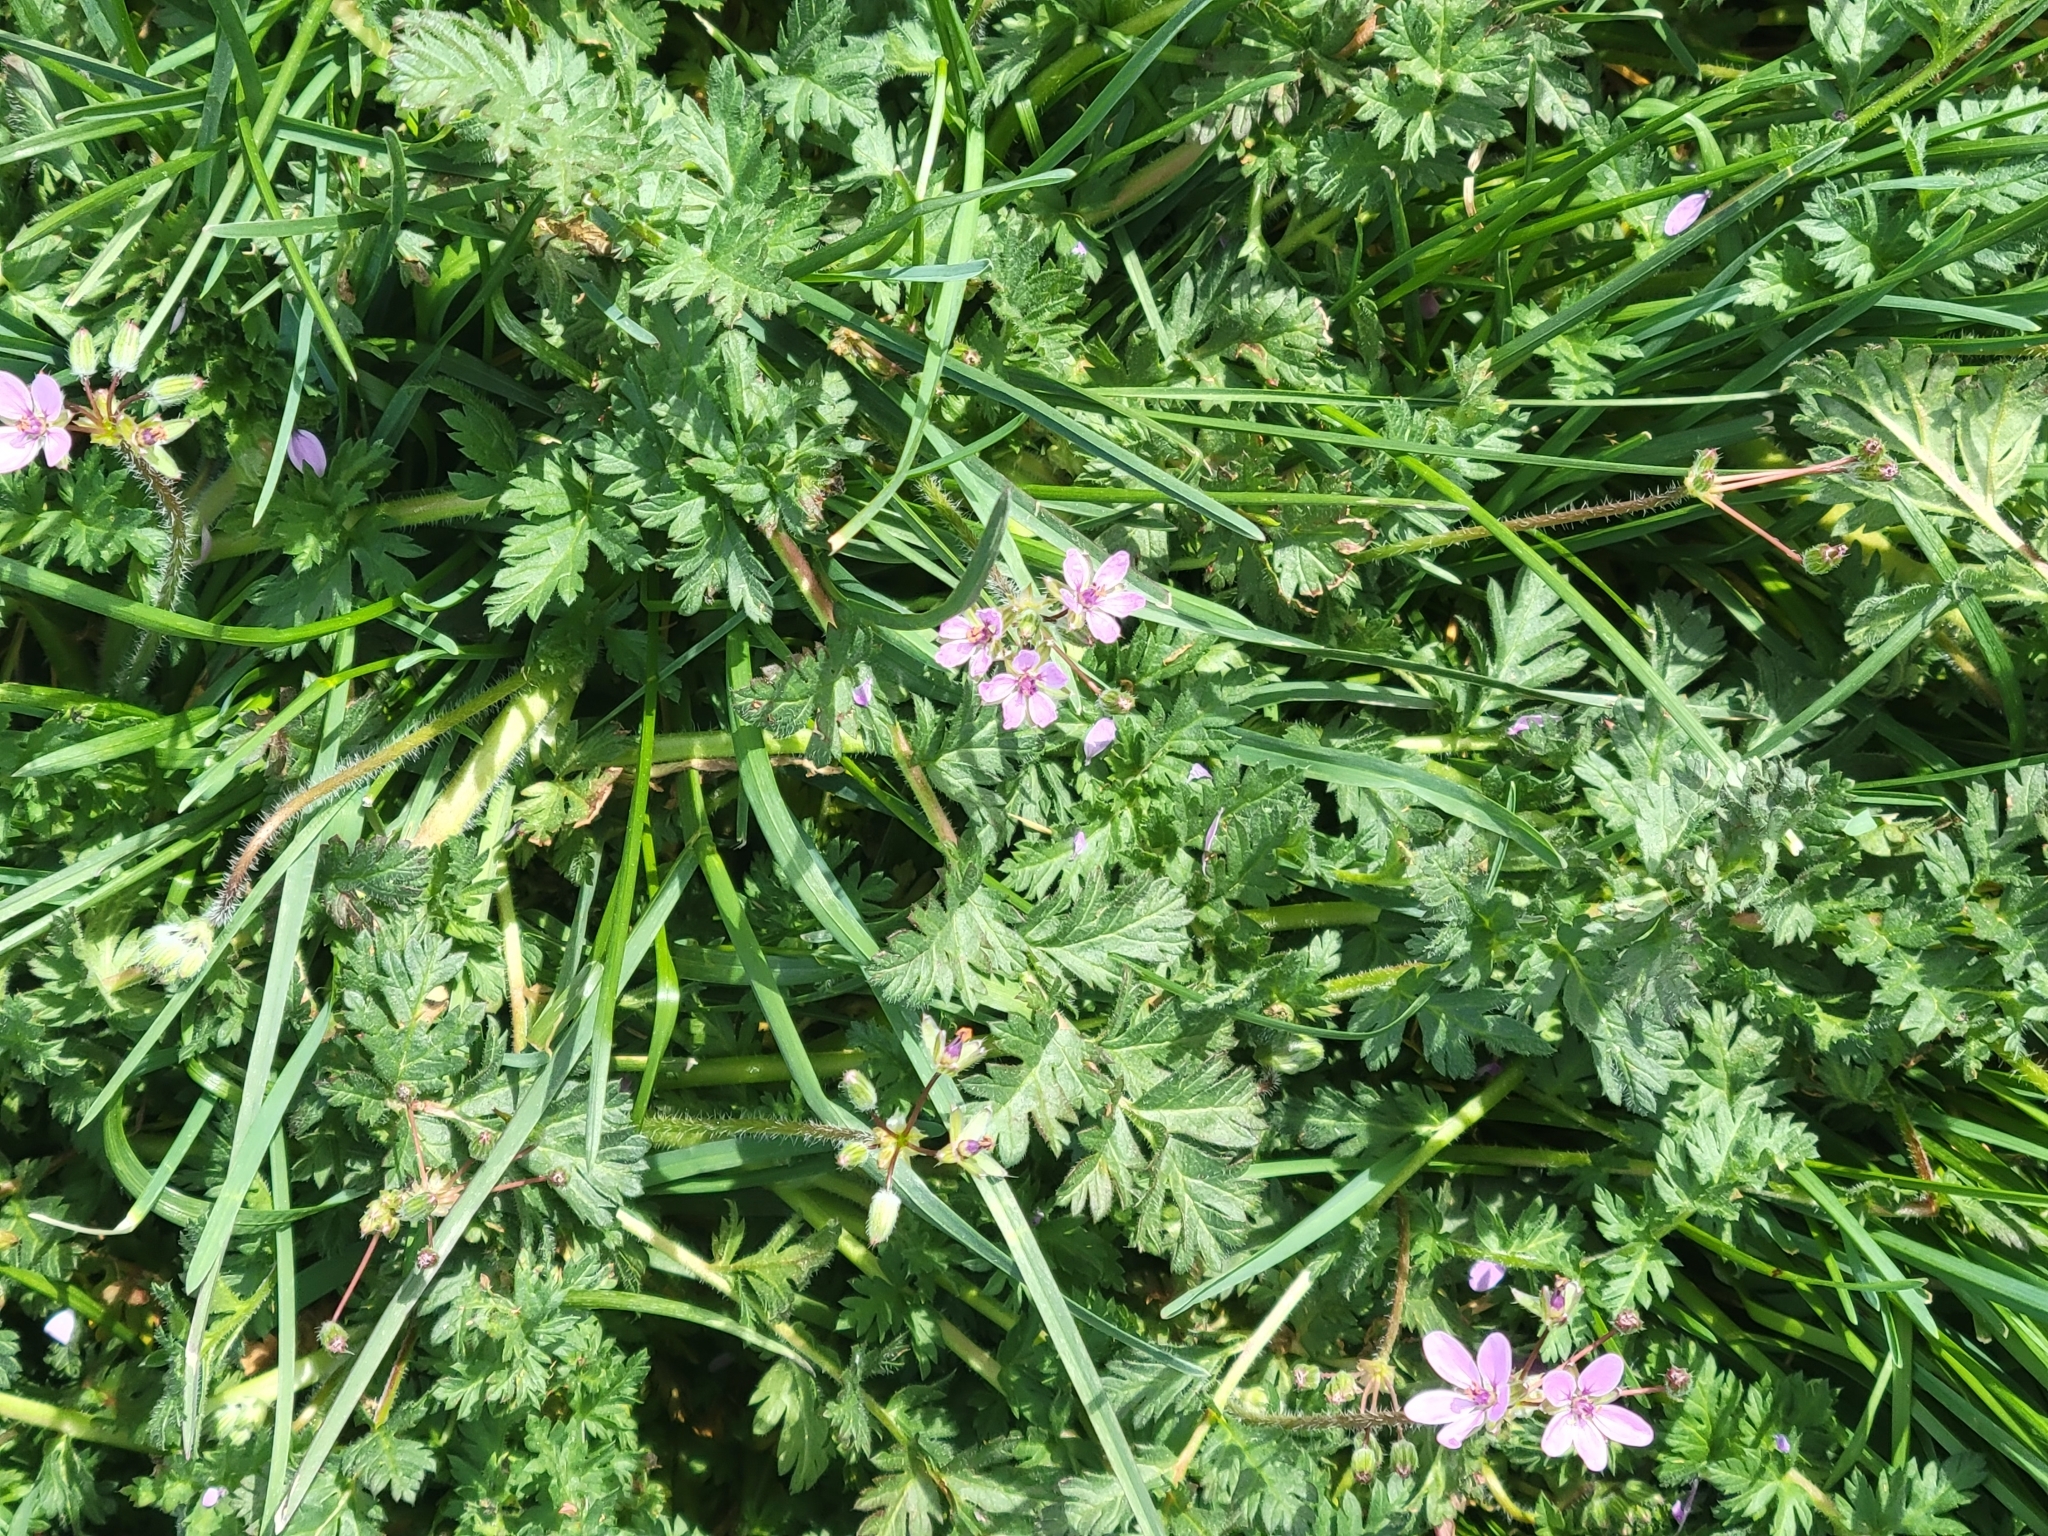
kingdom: Plantae
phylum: Tracheophyta
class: Magnoliopsida
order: Geraniales
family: Geraniaceae
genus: Erodium
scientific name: Erodium cicutarium
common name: Common stork's-bill
